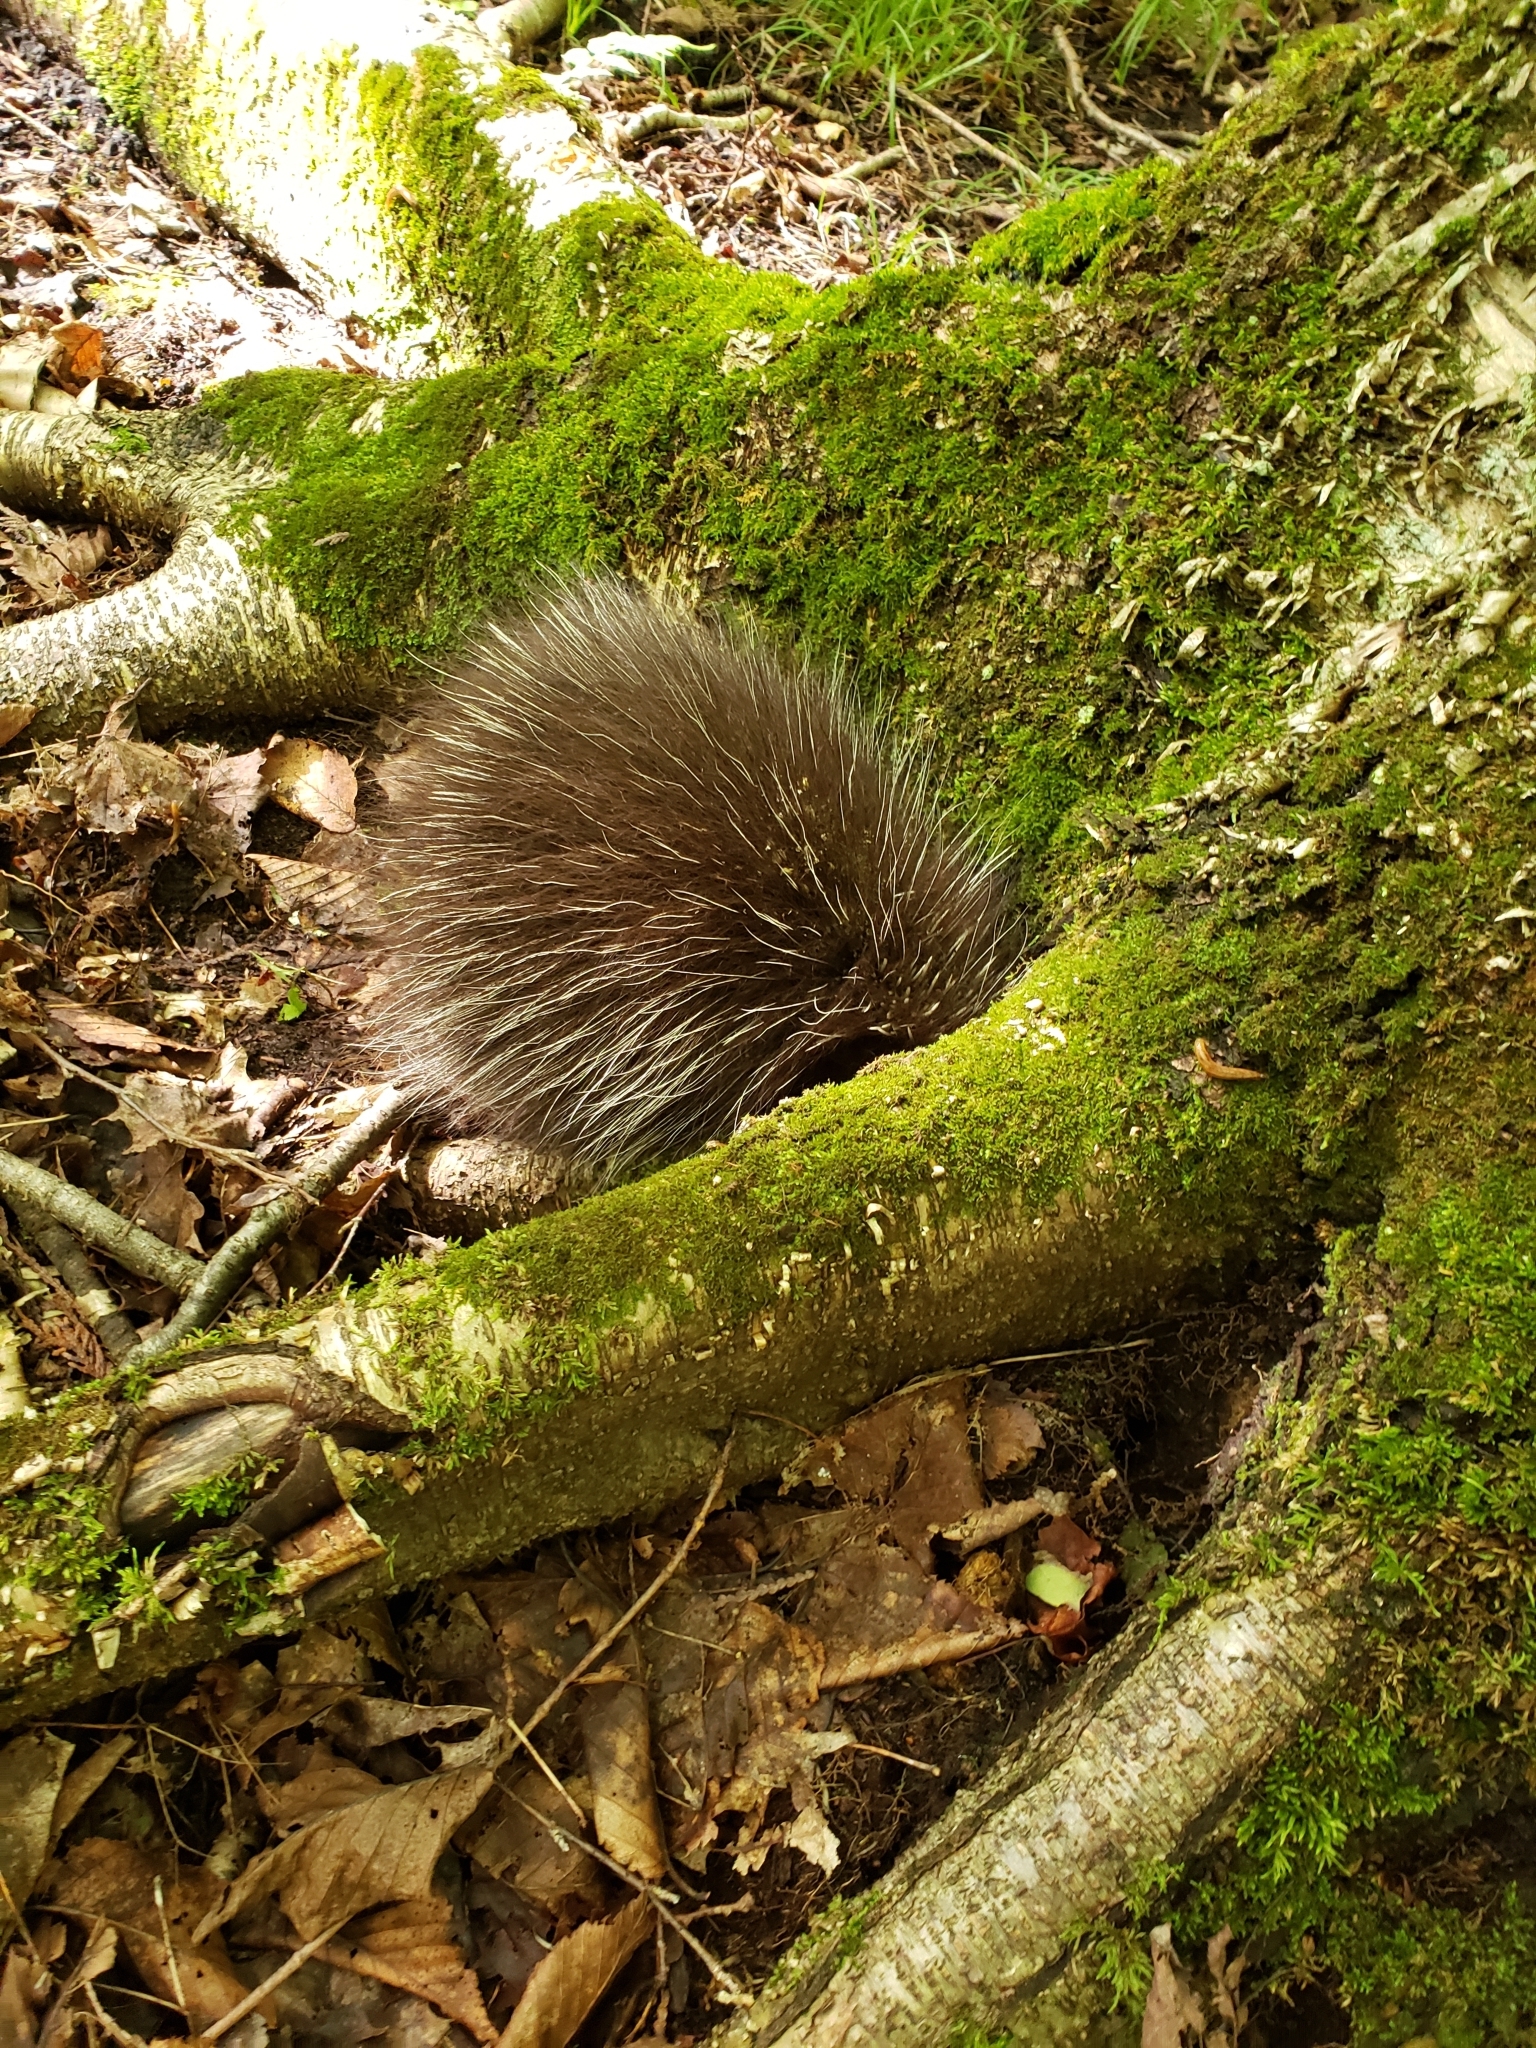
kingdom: Animalia
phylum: Chordata
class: Mammalia
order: Rodentia
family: Erethizontidae
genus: Erethizon
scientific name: Erethizon dorsatus
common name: North american porcupine
